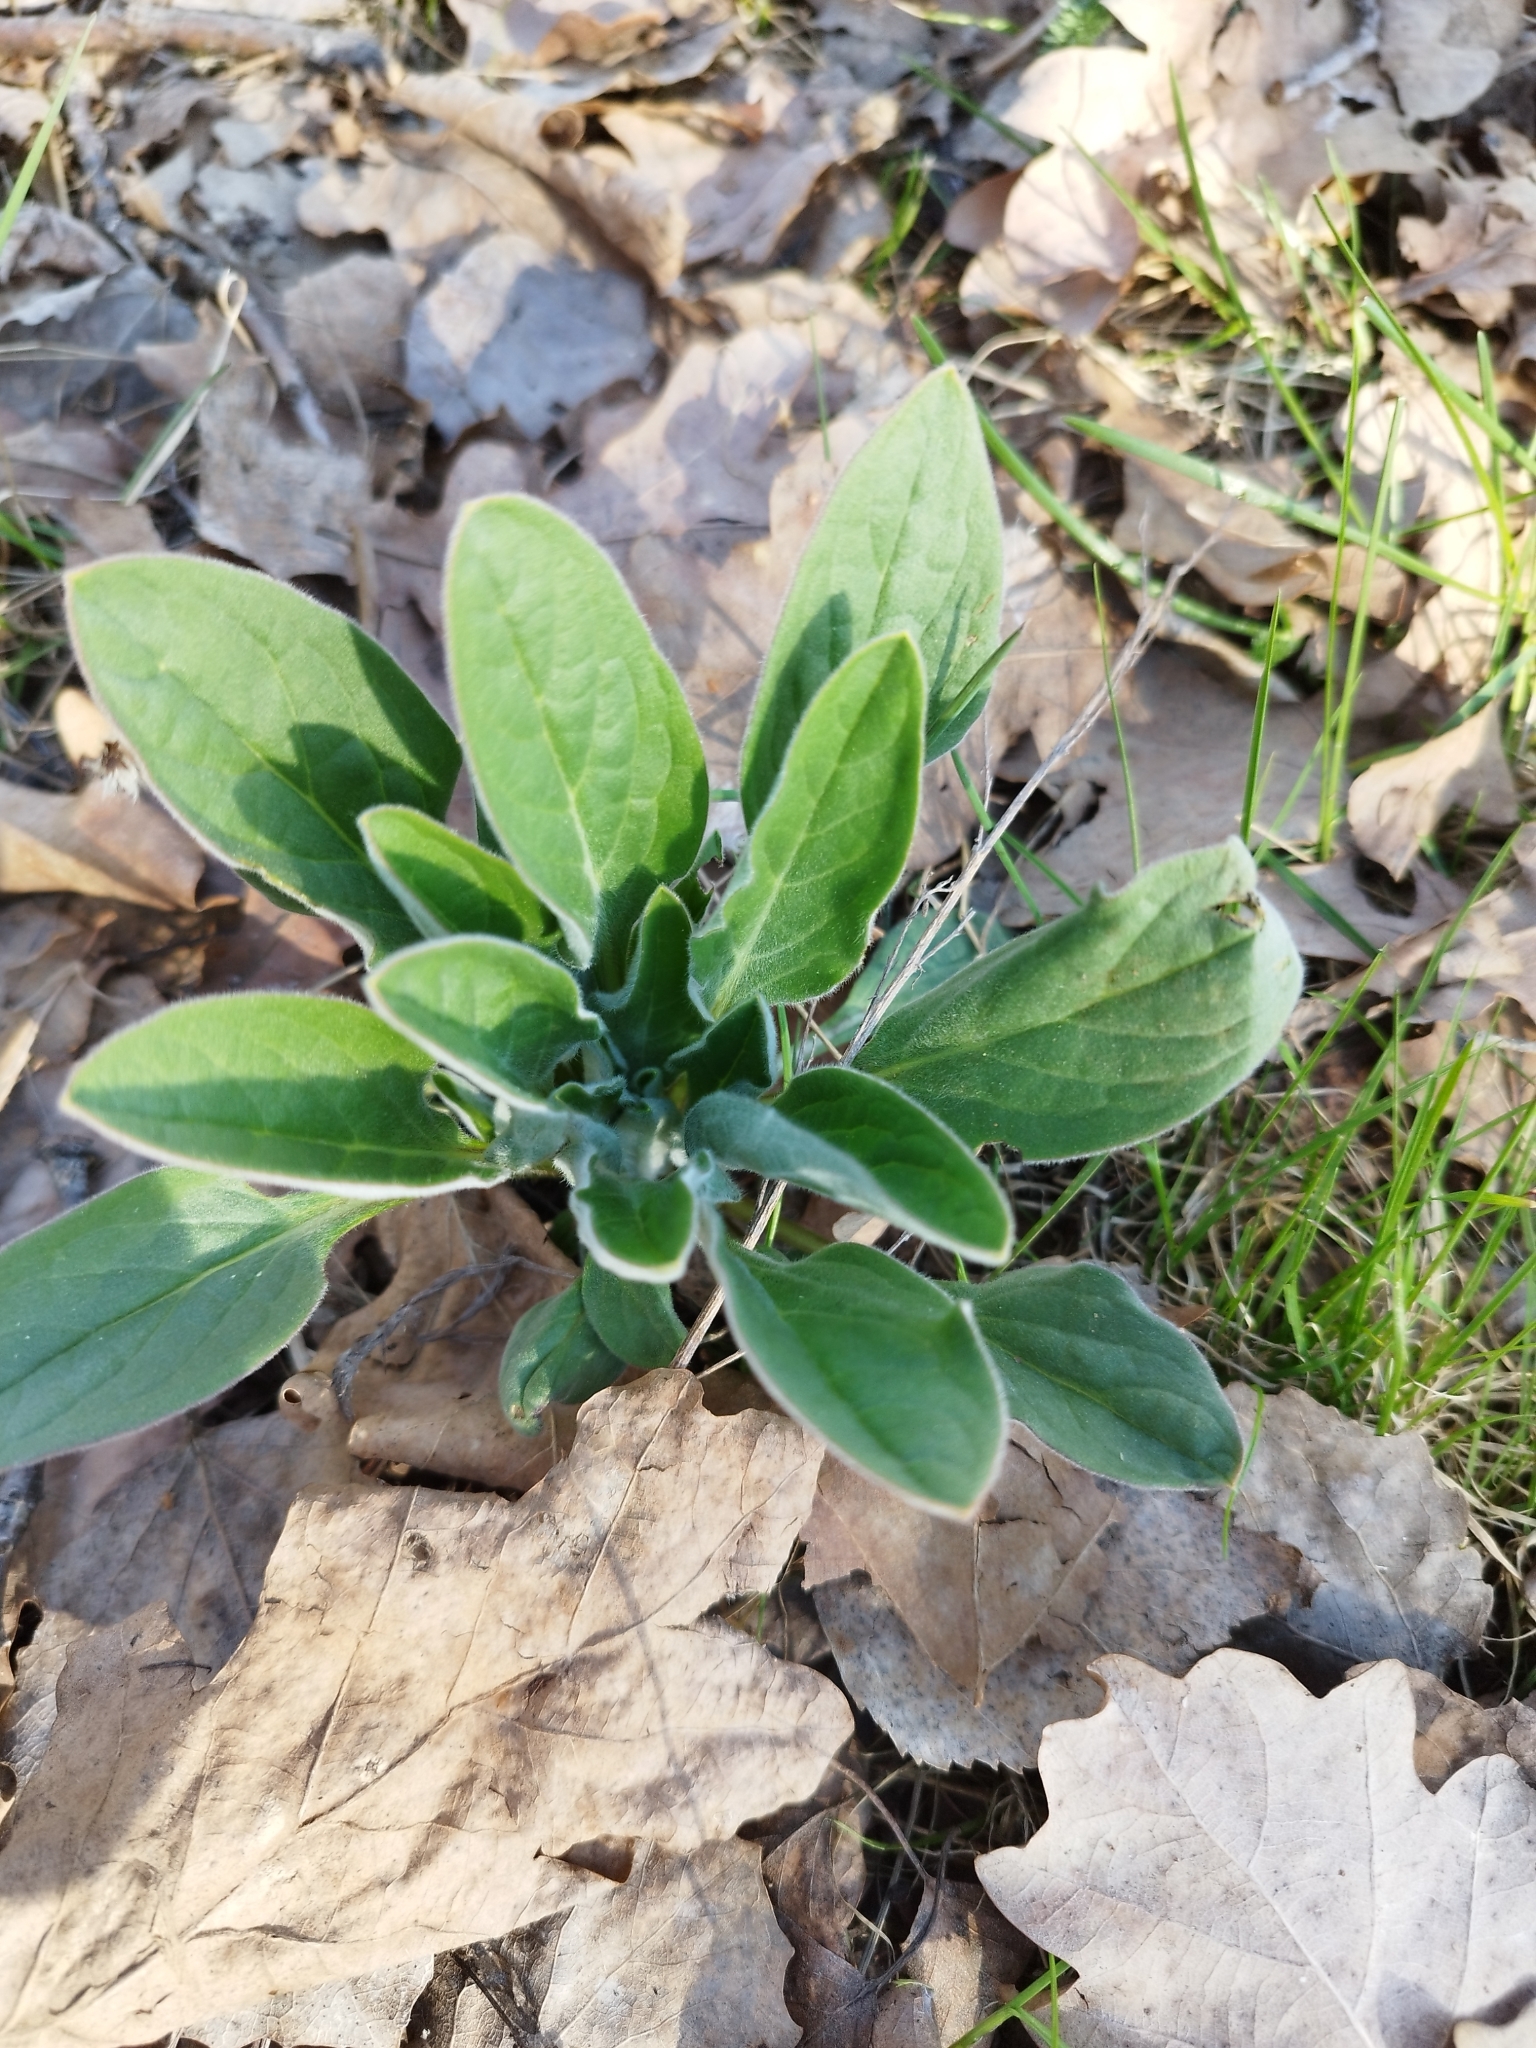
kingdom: Plantae
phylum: Tracheophyta
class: Magnoliopsida
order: Boraginales
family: Boraginaceae
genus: Cynoglossum
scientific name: Cynoglossum officinale
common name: Hound's-tongue
